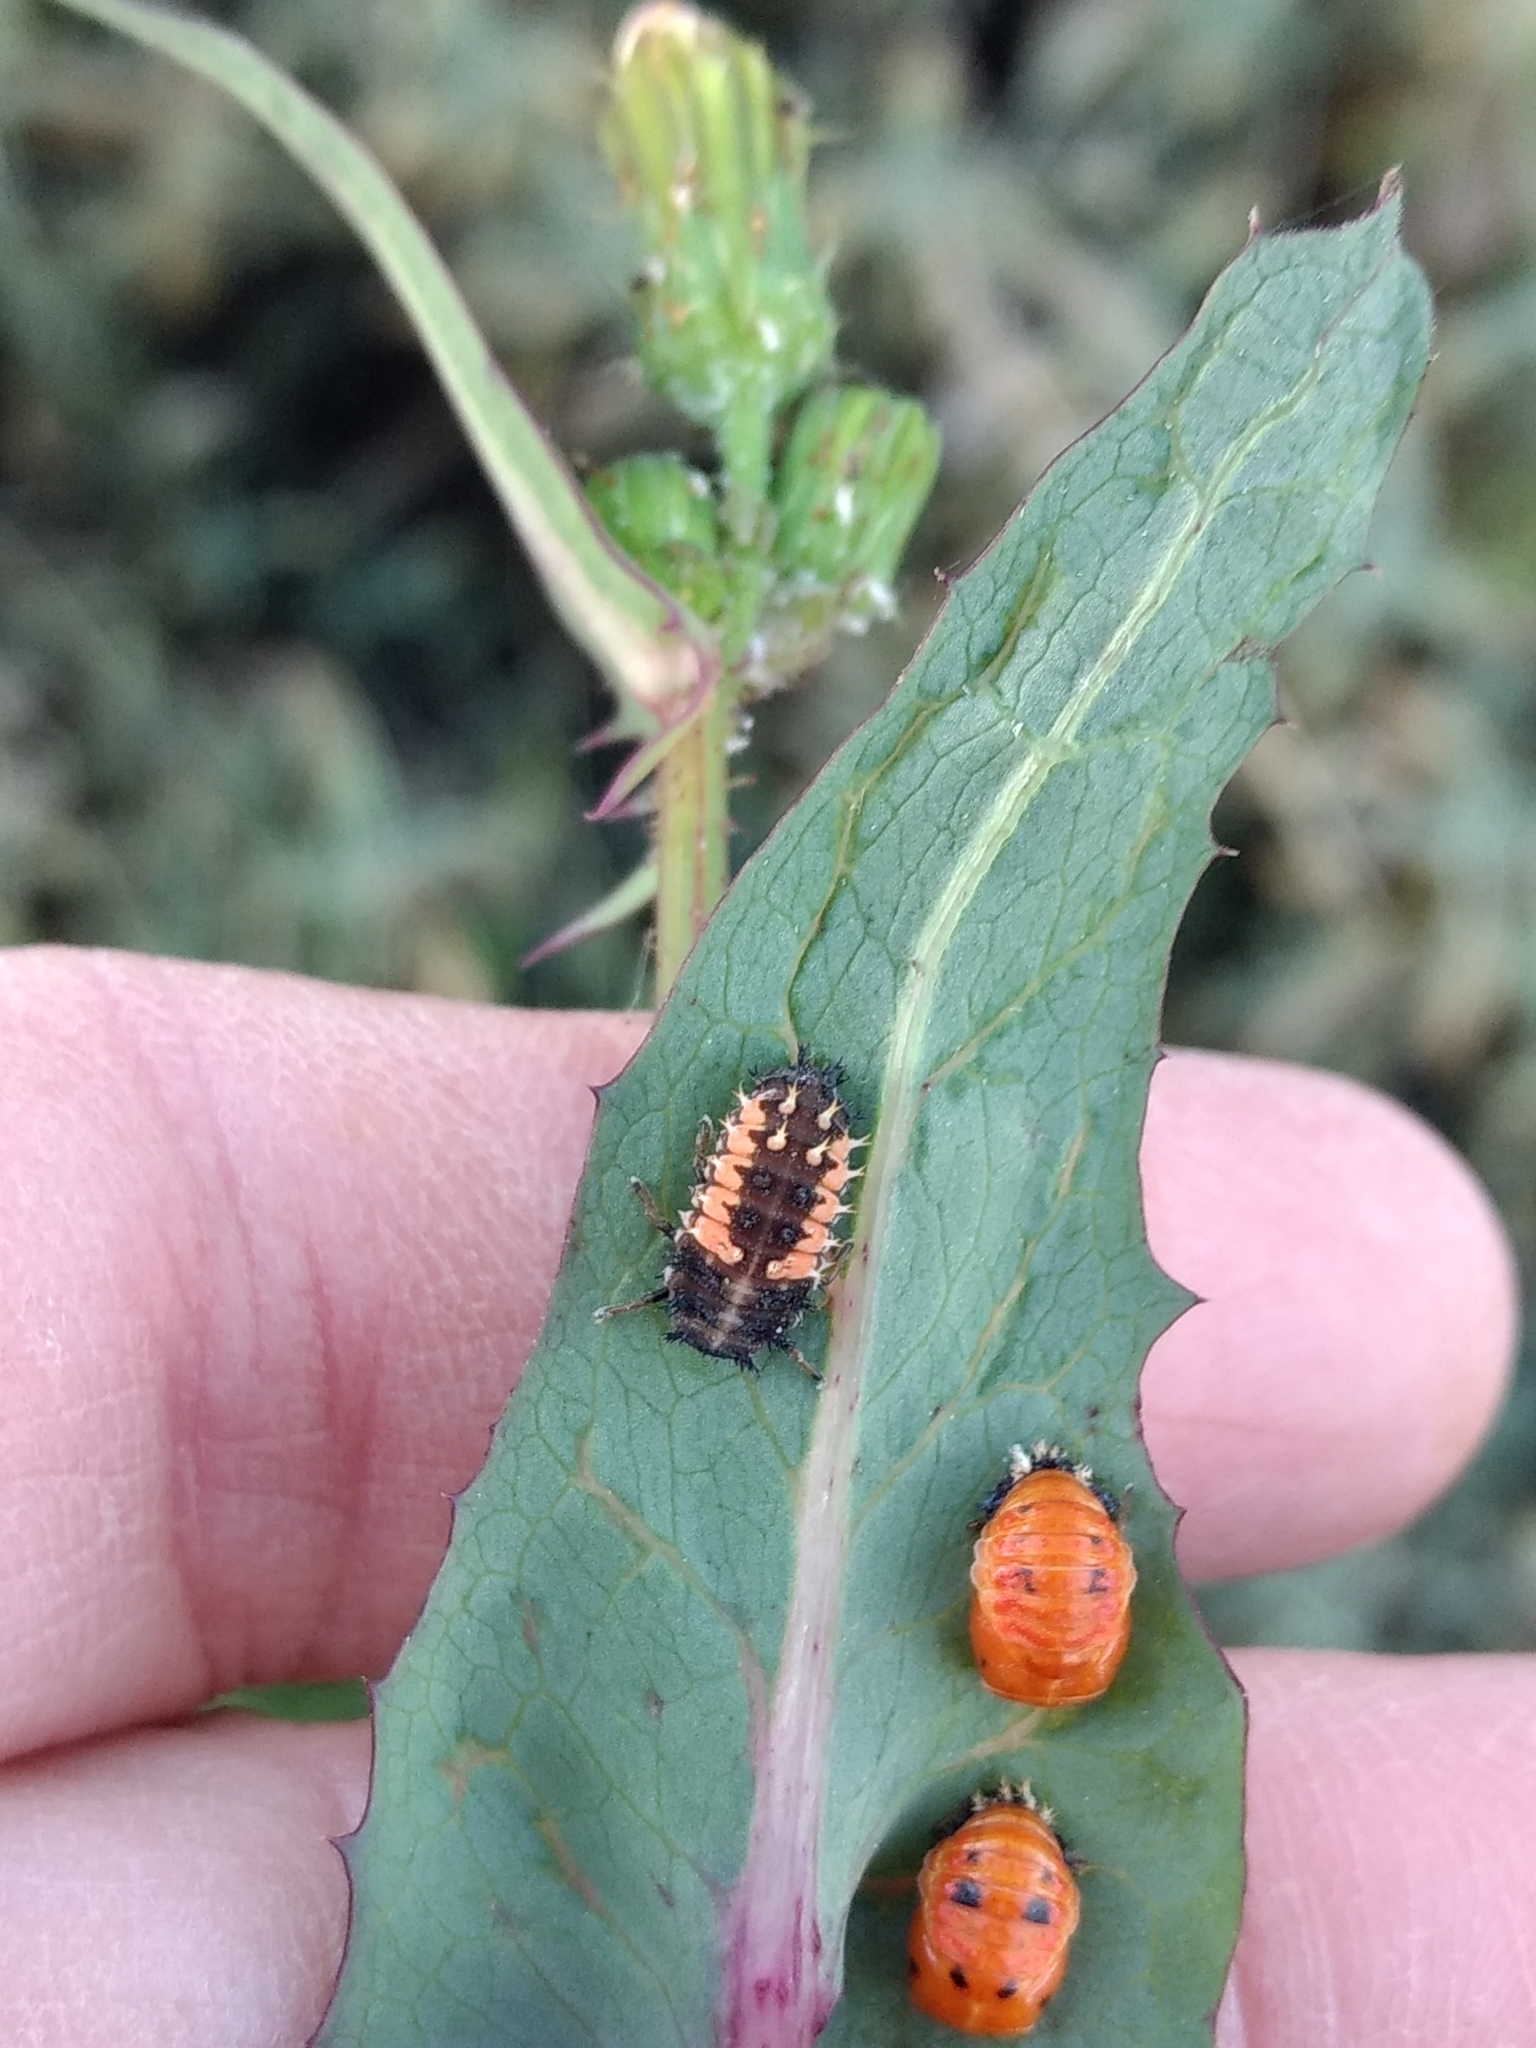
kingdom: Animalia
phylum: Arthropoda
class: Insecta
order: Coleoptera
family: Coccinellidae
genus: Harmonia
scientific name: Harmonia axyridis
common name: Harlequin ladybird
